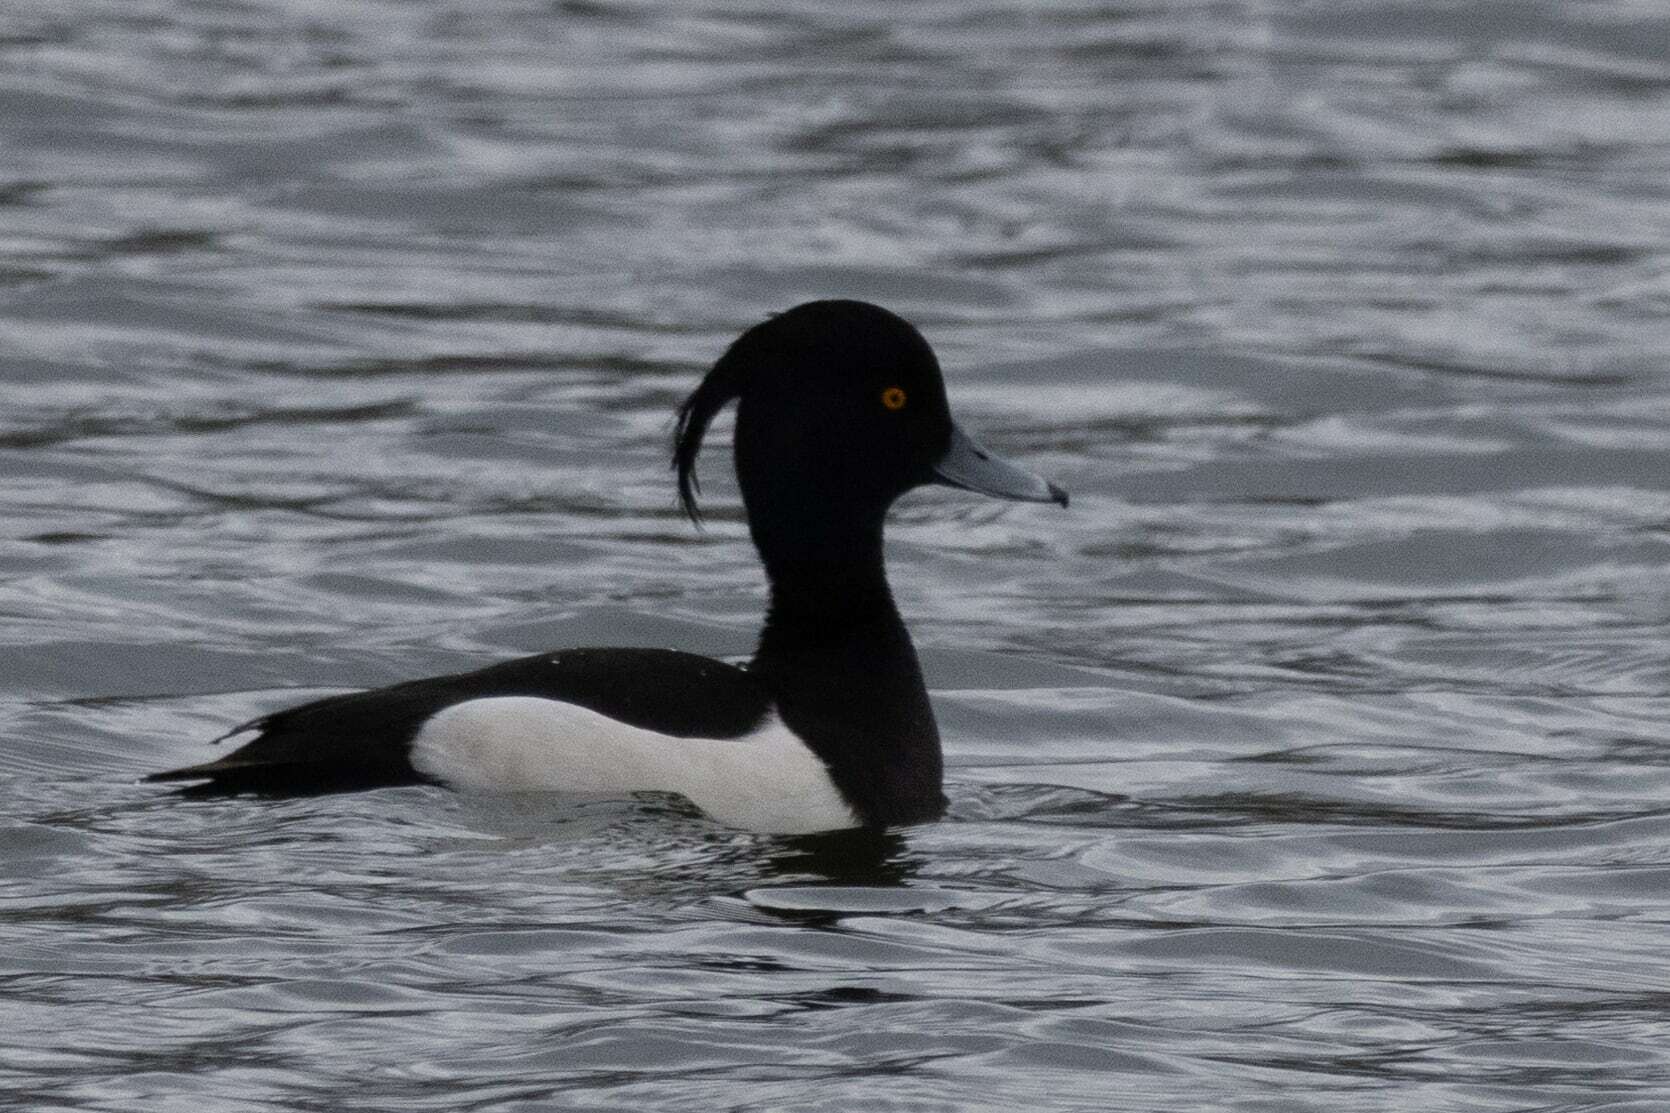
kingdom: Animalia
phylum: Chordata
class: Aves
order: Anseriformes
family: Anatidae
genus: Aythya
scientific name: Aythya fuligula
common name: Tufted duck
